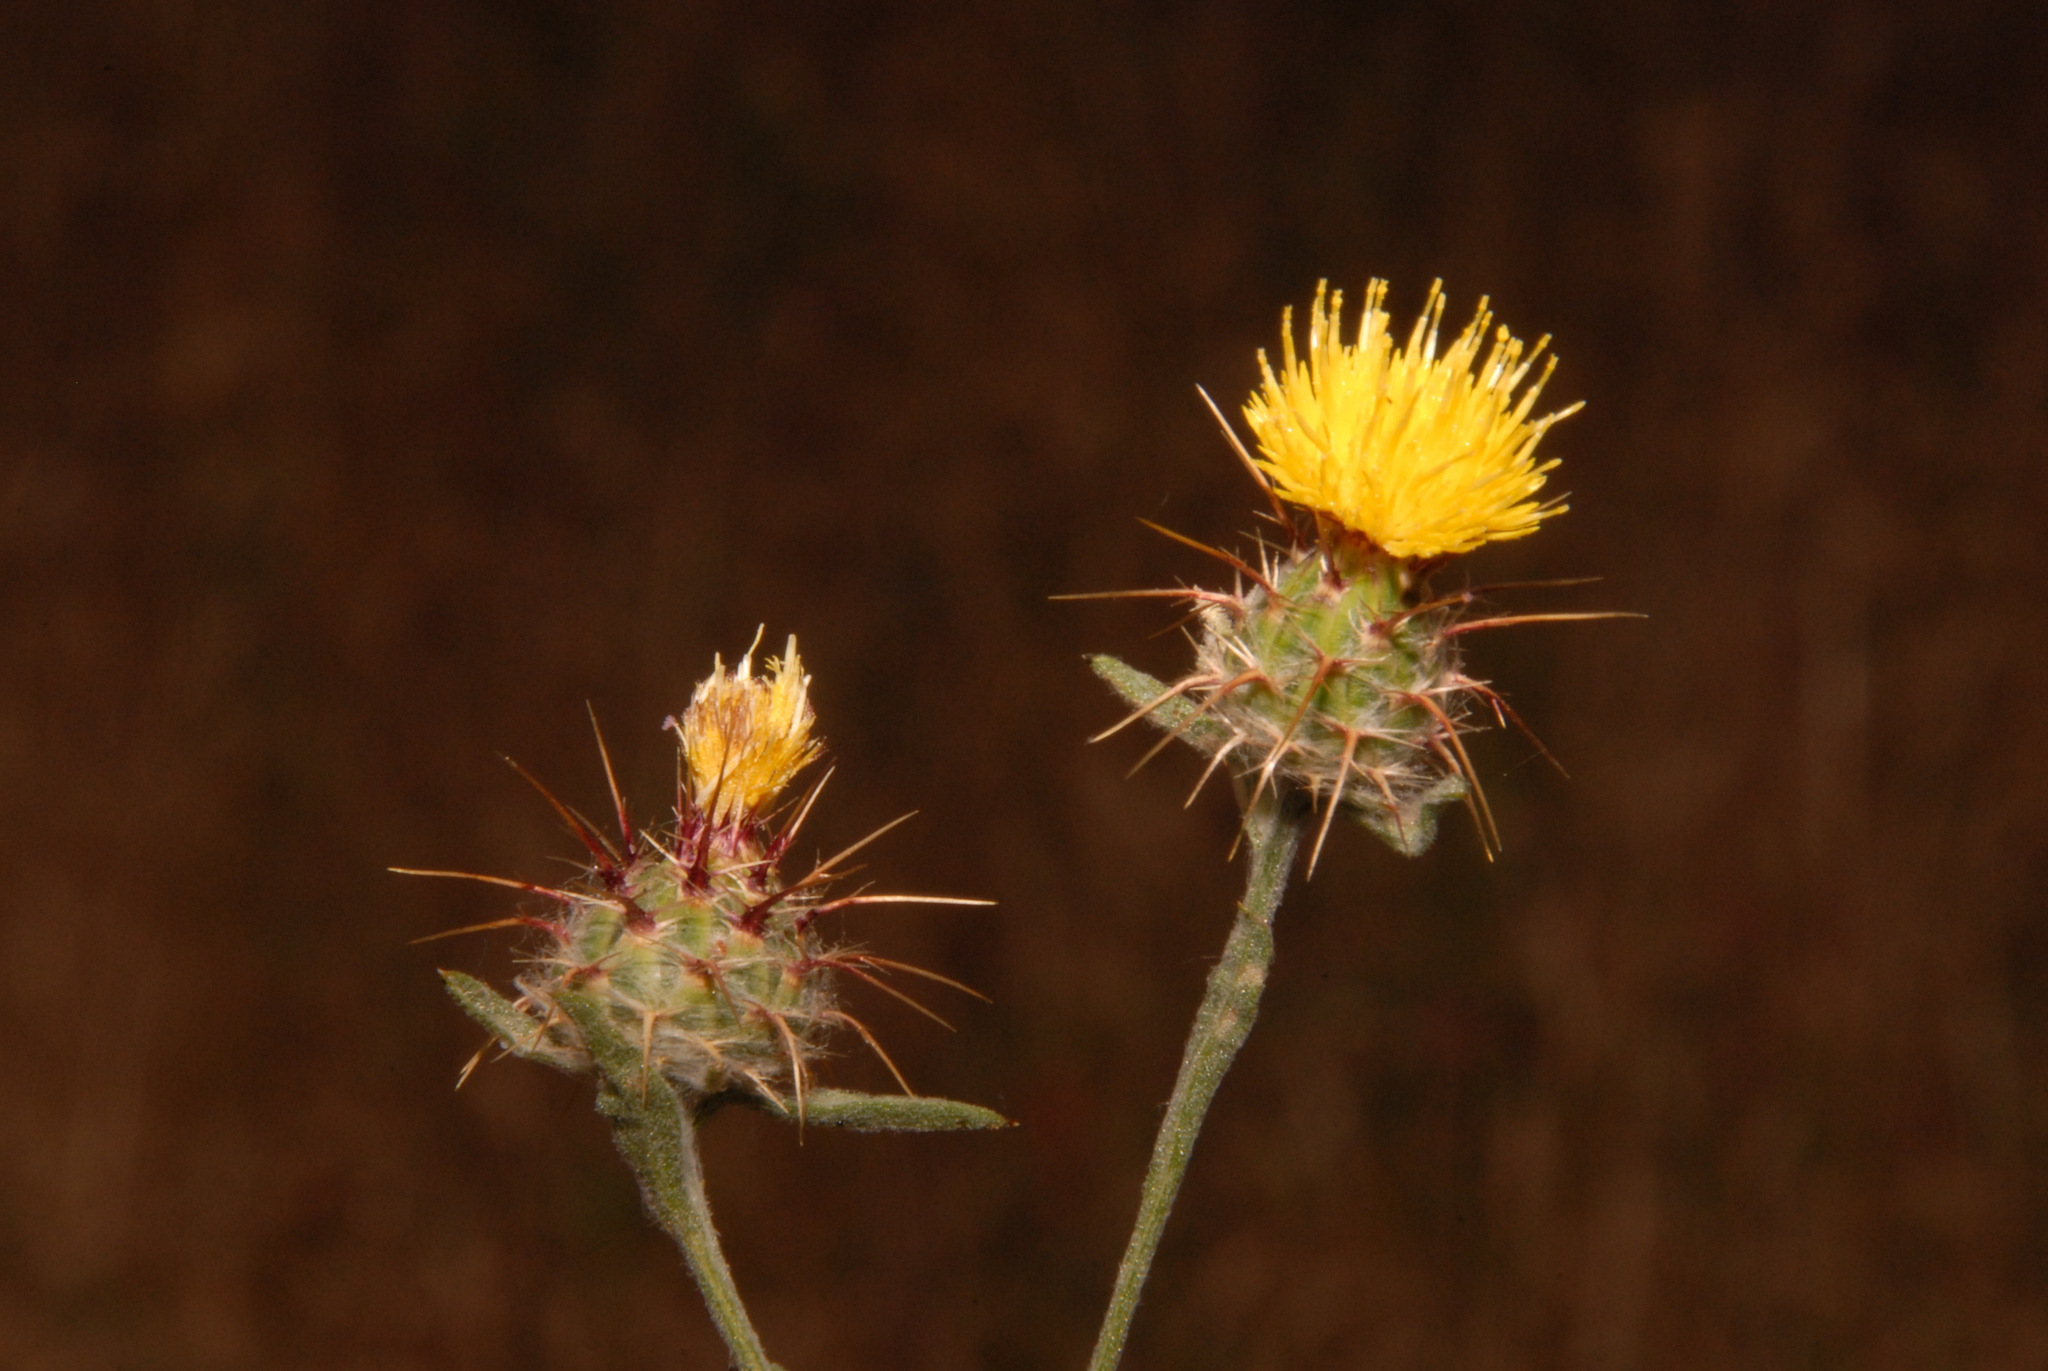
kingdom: Plantae
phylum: Tracheophyta
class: Magnoliopsida
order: Asterales
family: Asteraceae
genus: Centaurea
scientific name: Centaurea melitensis
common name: Maltese star-thistle
